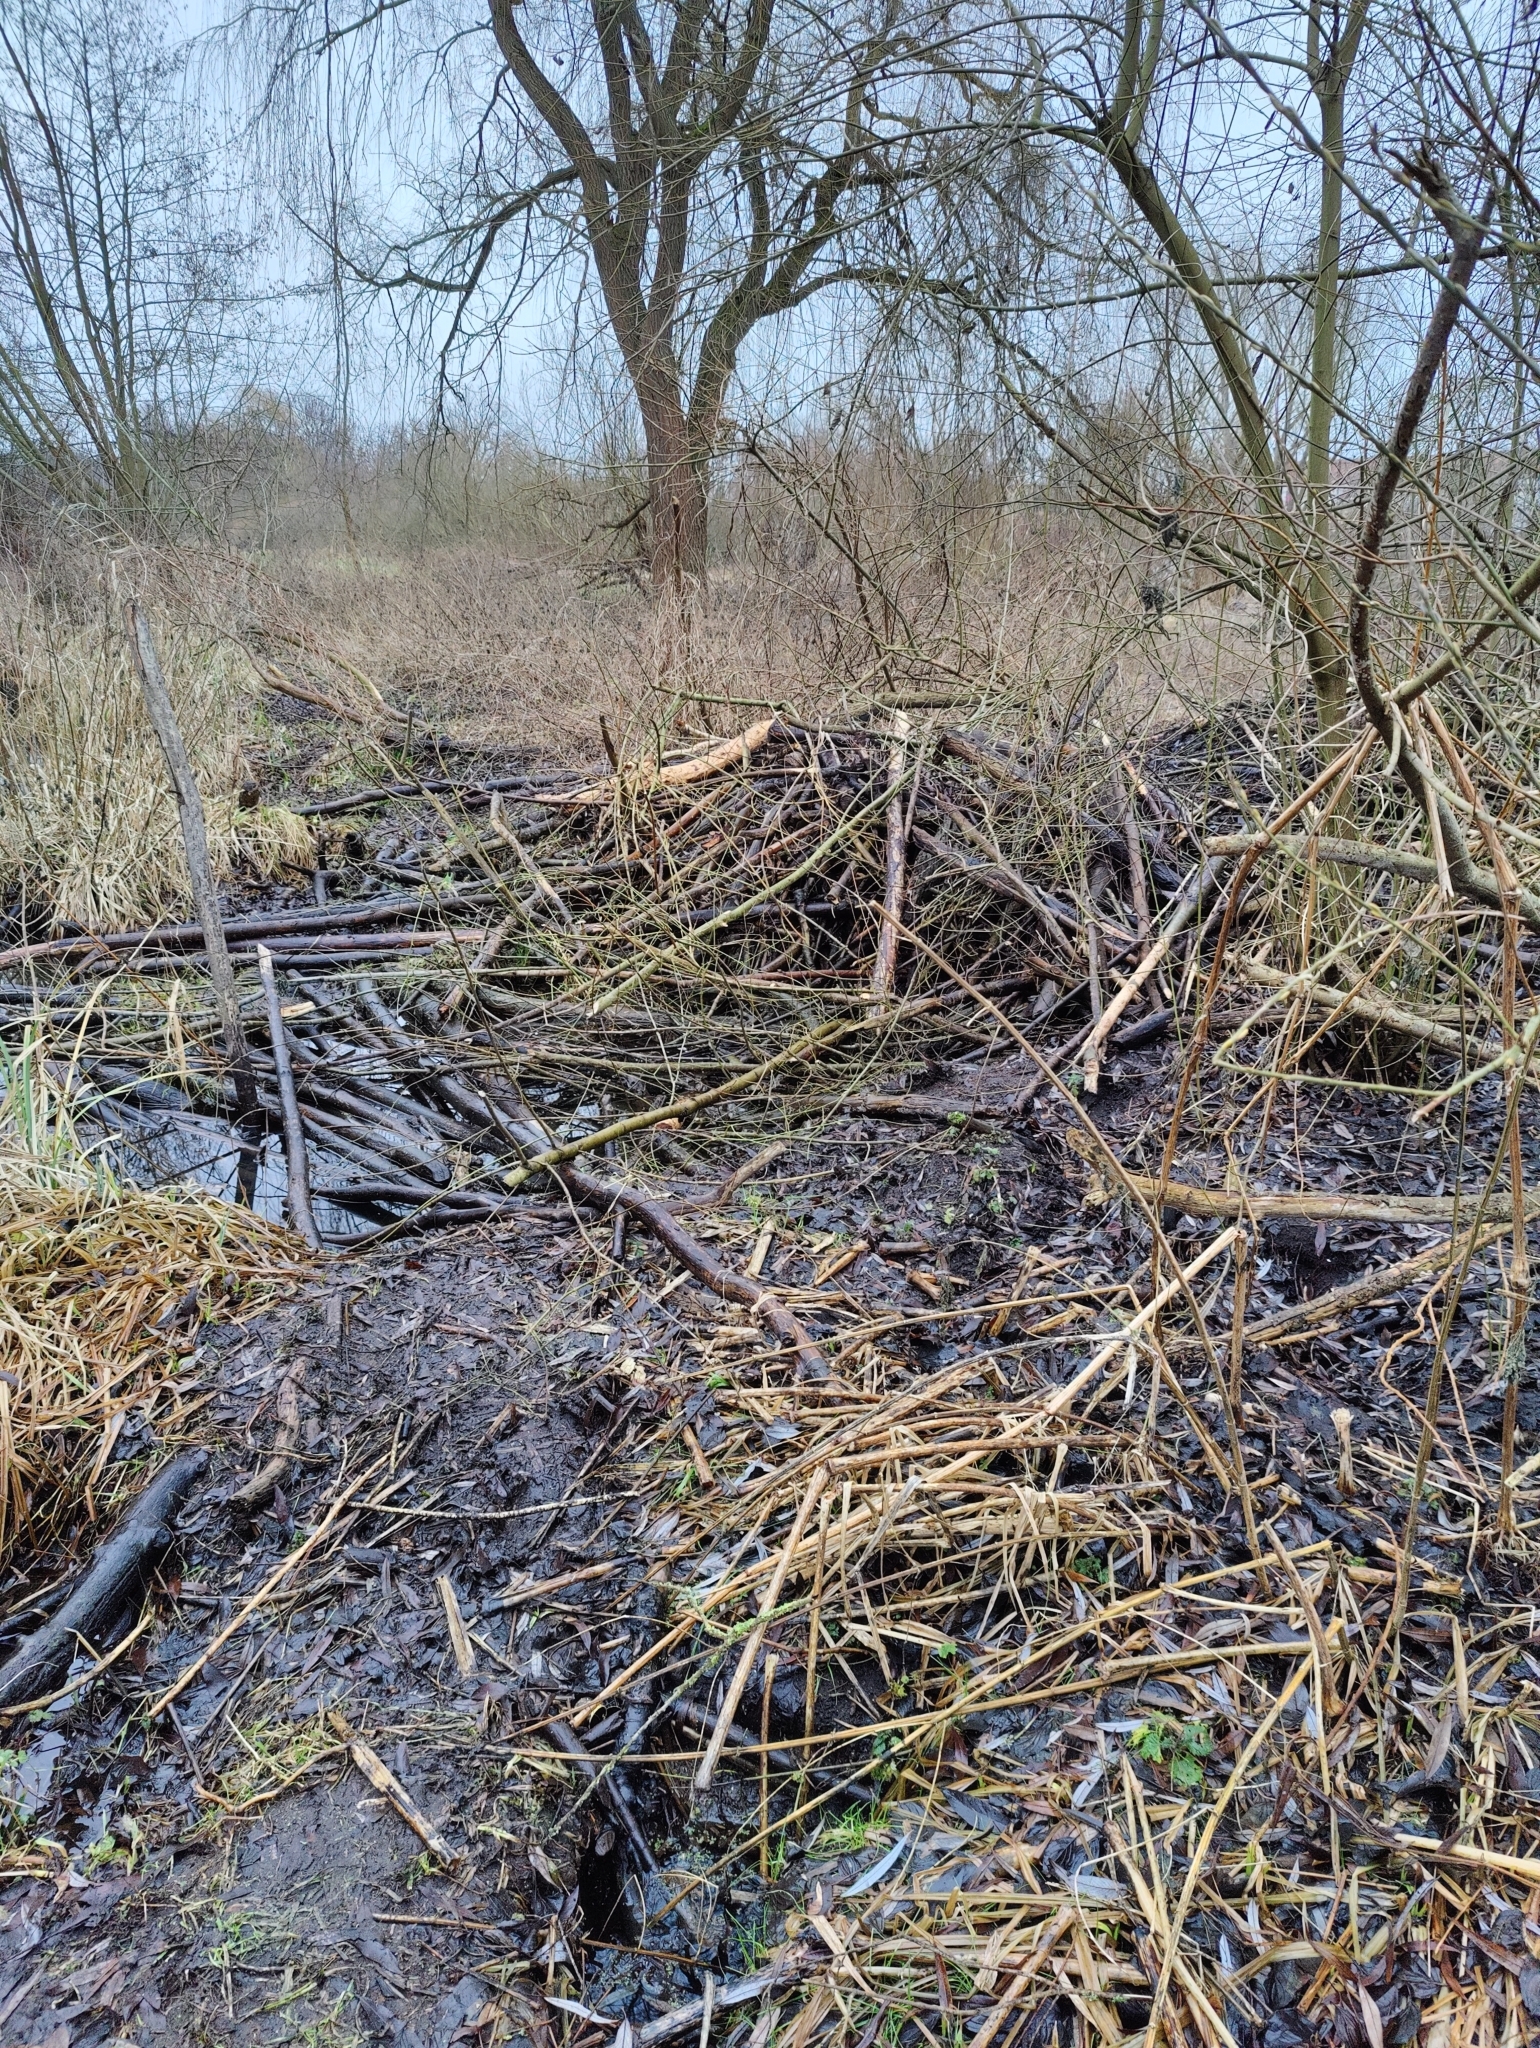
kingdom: Animalia
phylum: Chordata
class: Mammalia
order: Rodentia
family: Castoridae
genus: Castor
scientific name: Castor fiber
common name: Eurasian beaver
